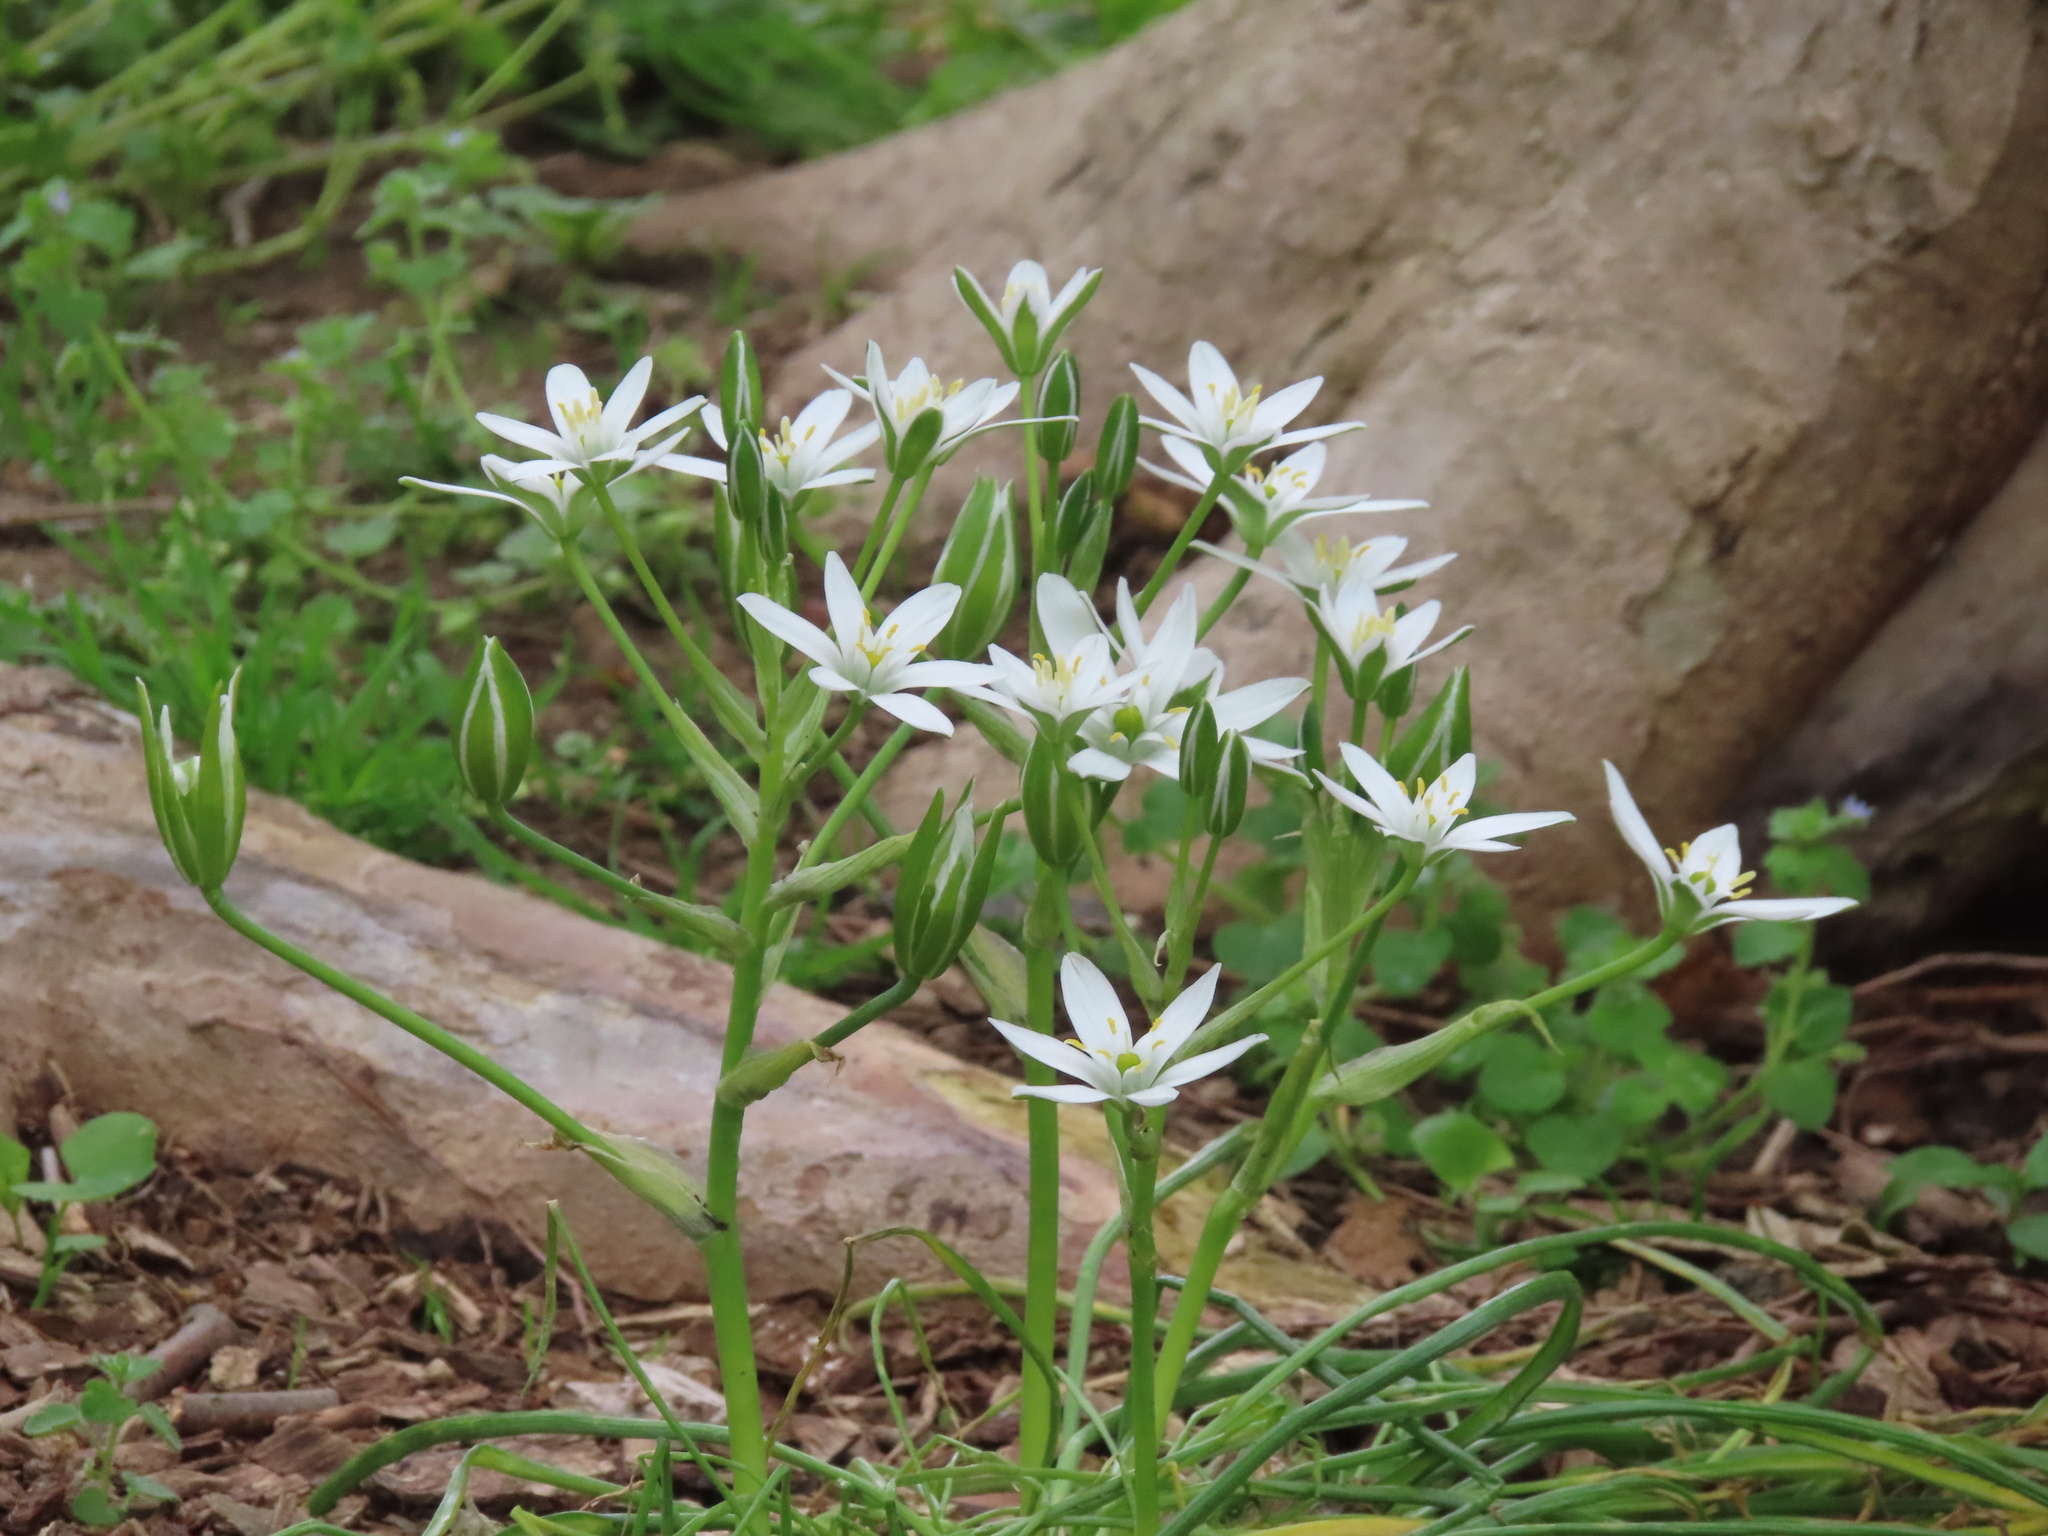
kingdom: Plantae
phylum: Tracheophyta
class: Liliopsida
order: Asparagales
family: Asparagaceae
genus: Ornithogalum
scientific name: Ornithogalum umbellatum
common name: Garden star-of-bethlehem
